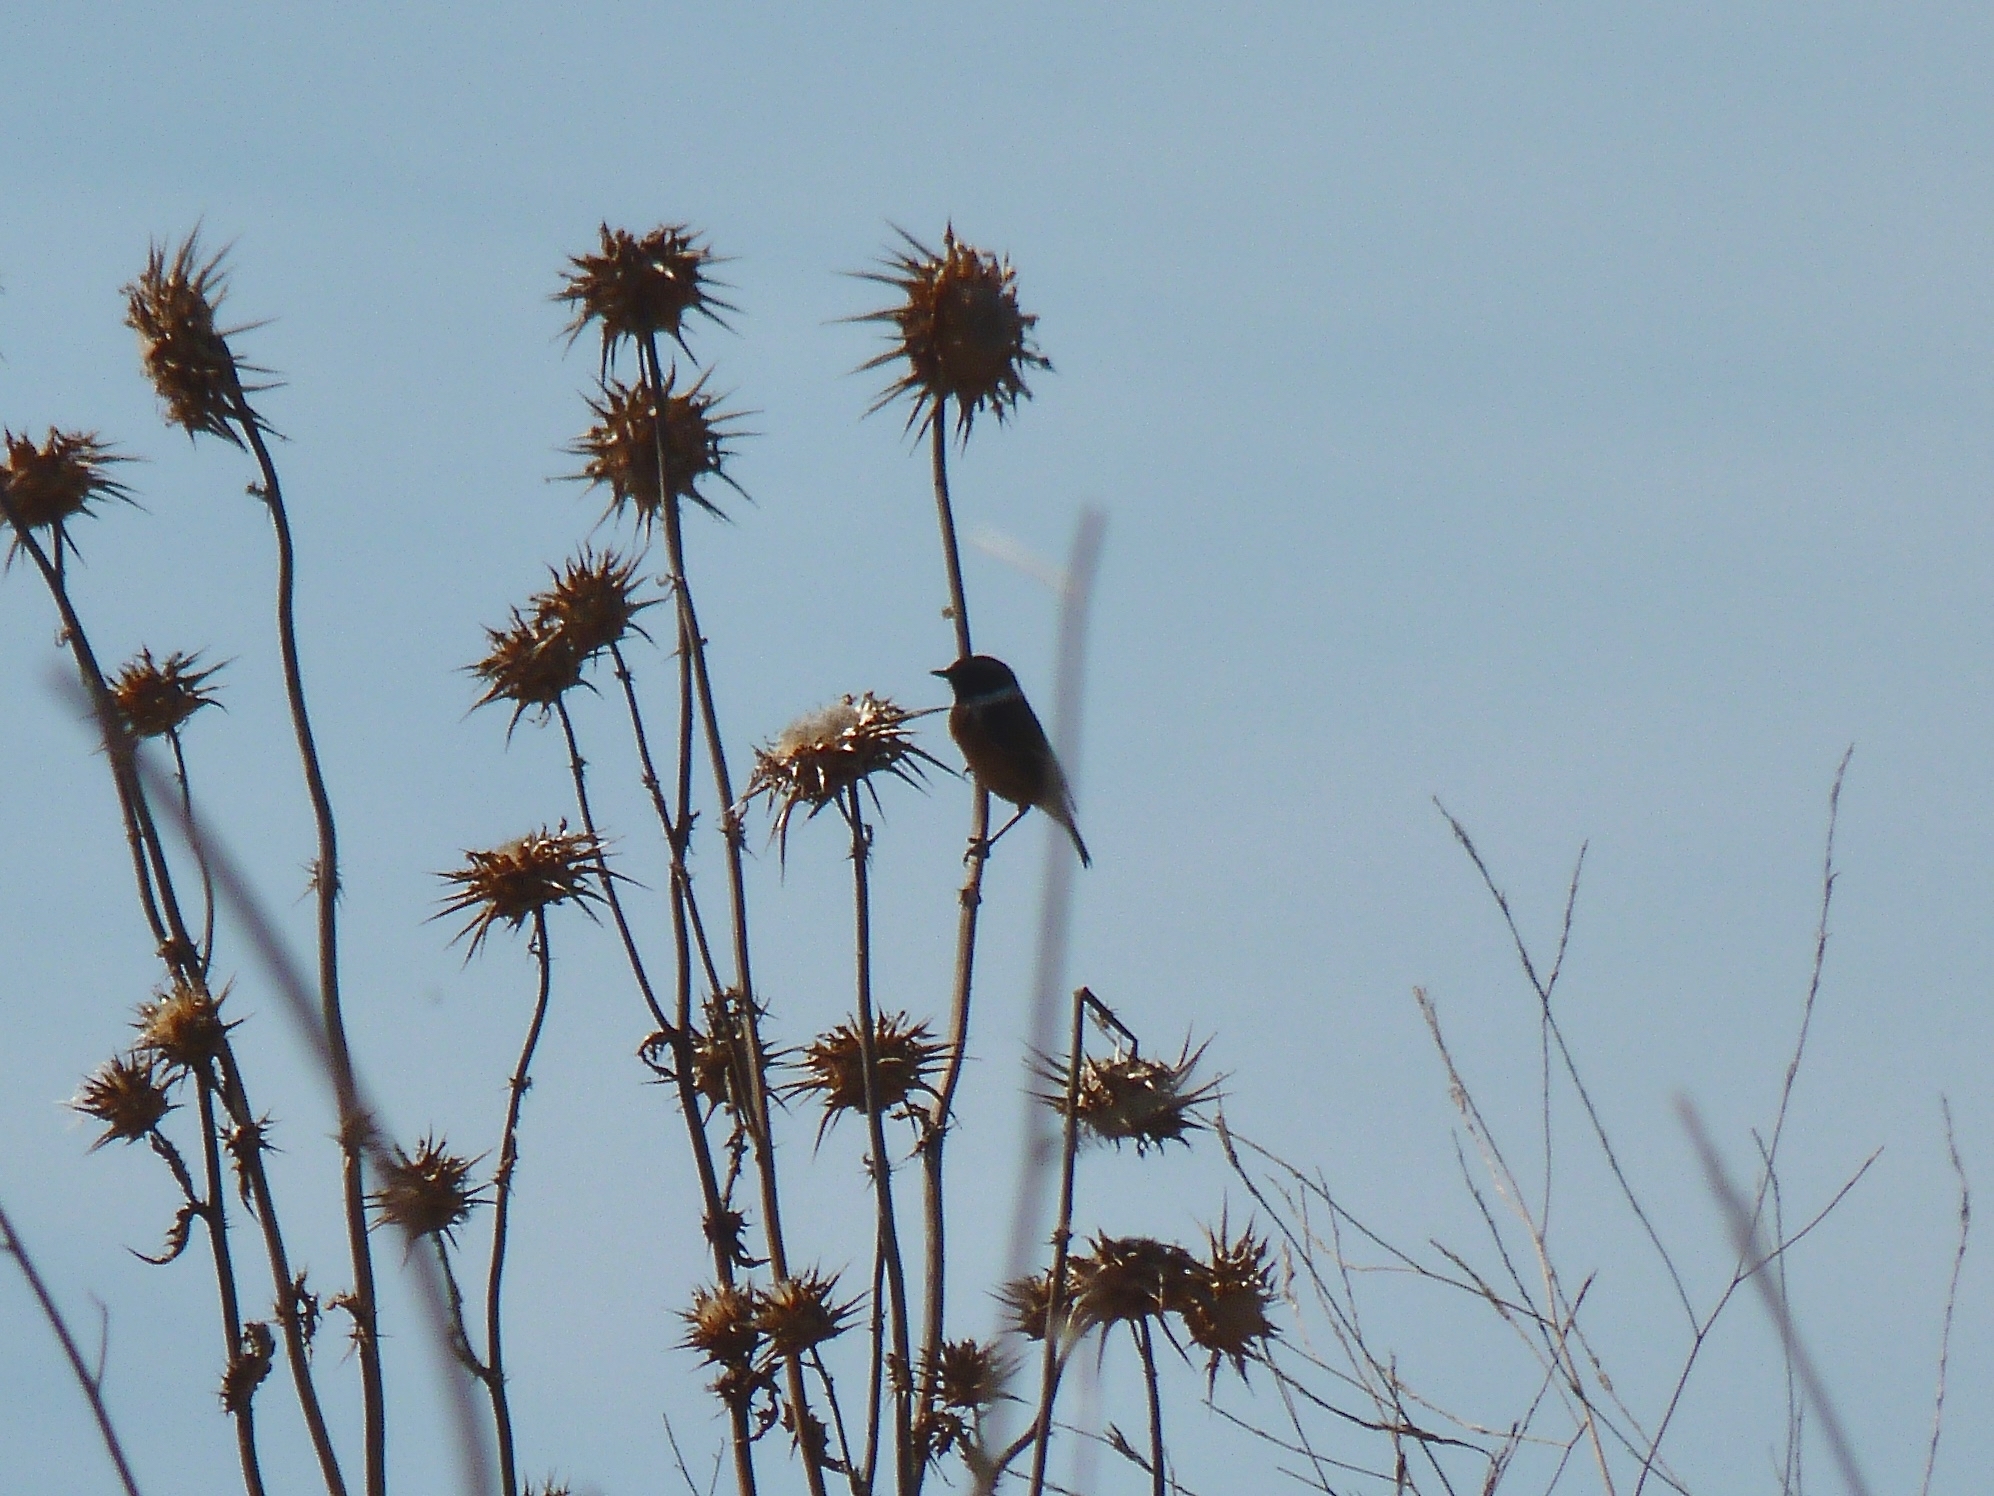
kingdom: Animalia
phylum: Chordata
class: Aves
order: Passeriformes
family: Muscicapidae
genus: Saxicola
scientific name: Saxicola rubicola
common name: European stonechat
